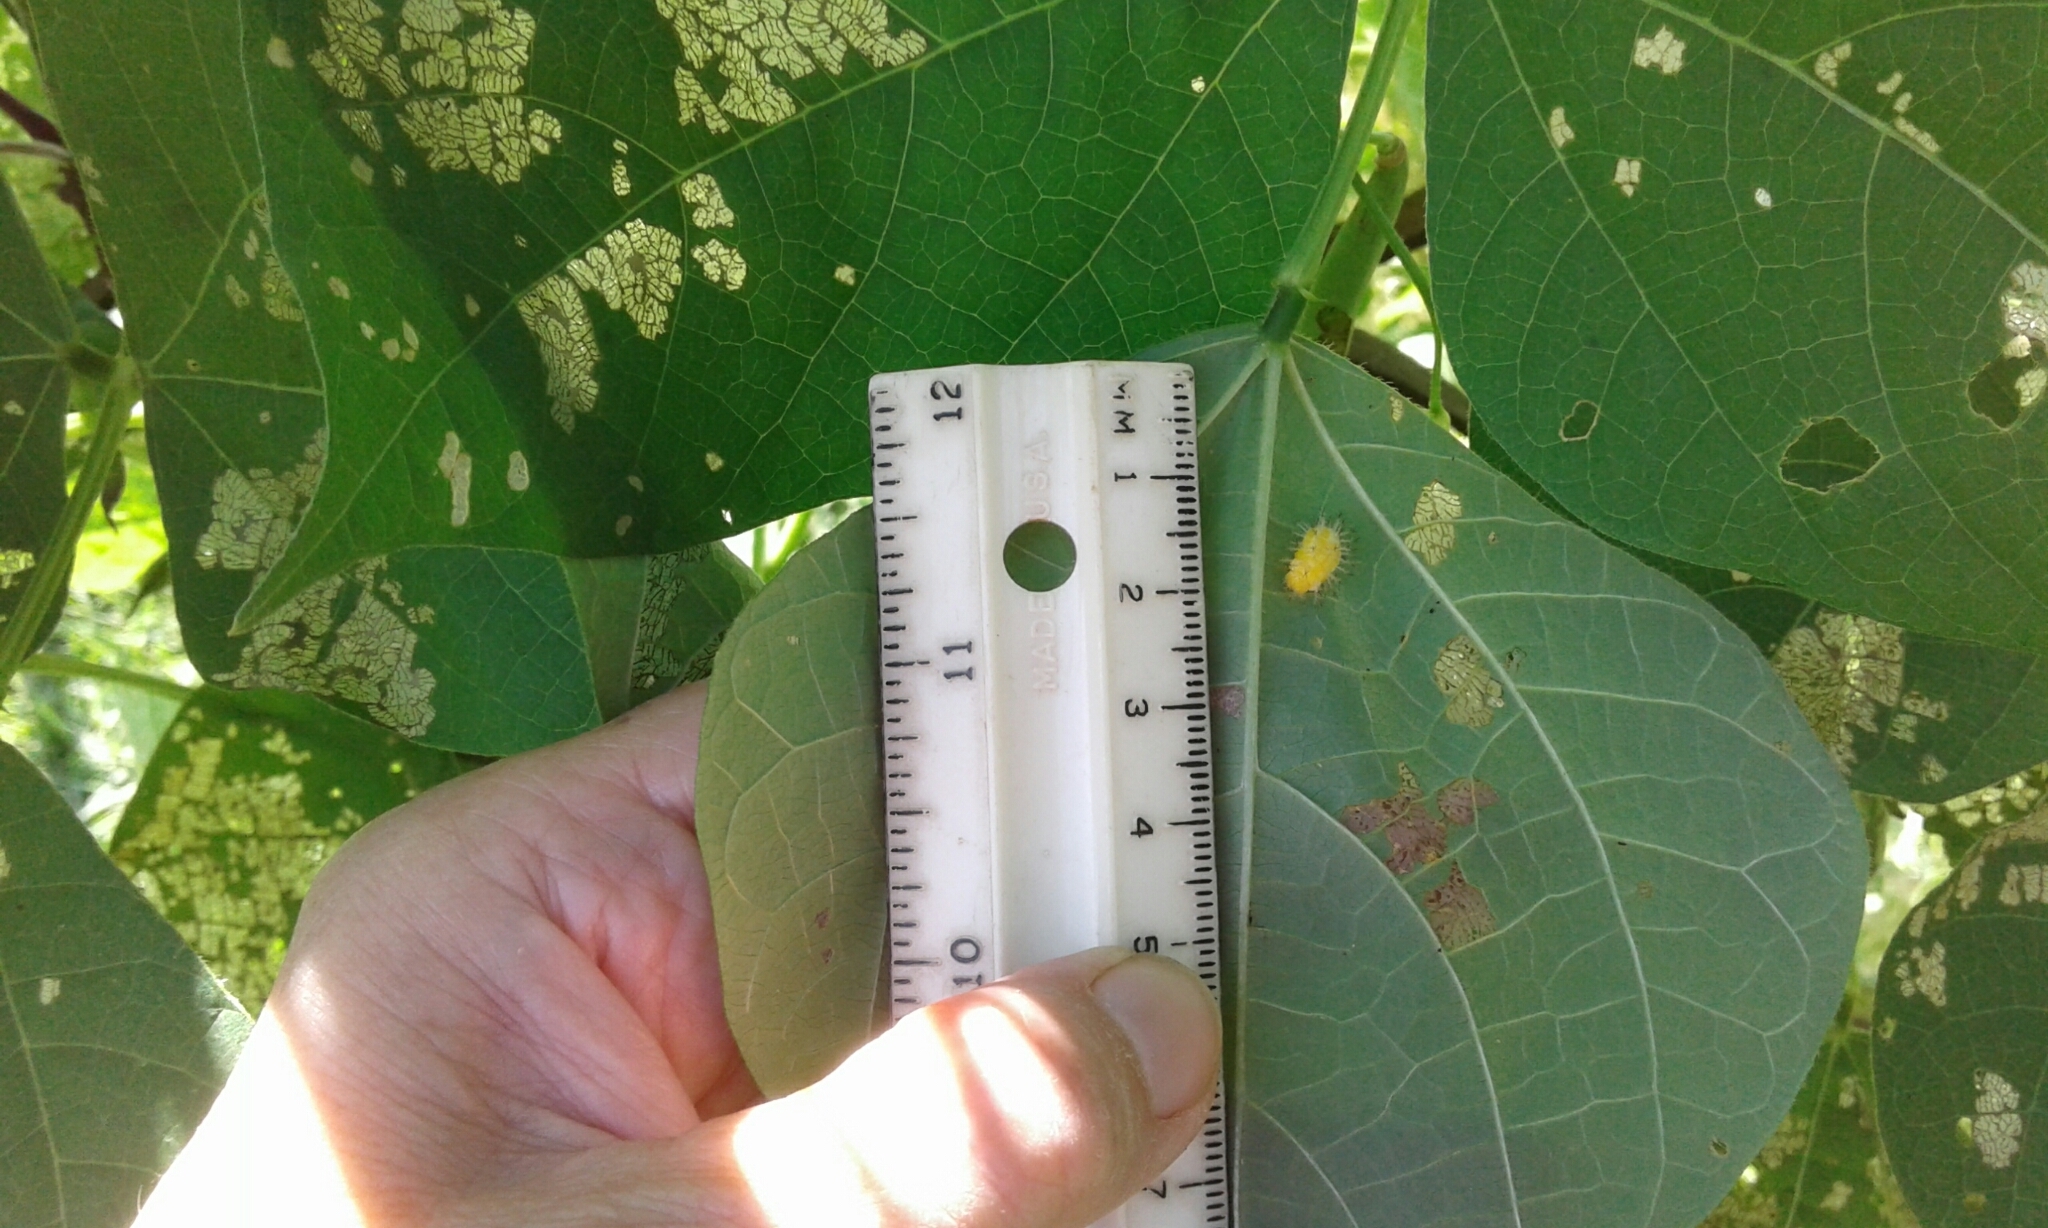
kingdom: Animalia
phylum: Arthropoda
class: Insecta
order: Coleoptera
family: Coccinellidae
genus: Epilachna
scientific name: Epilachna varivestis
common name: Ladybird beetle
